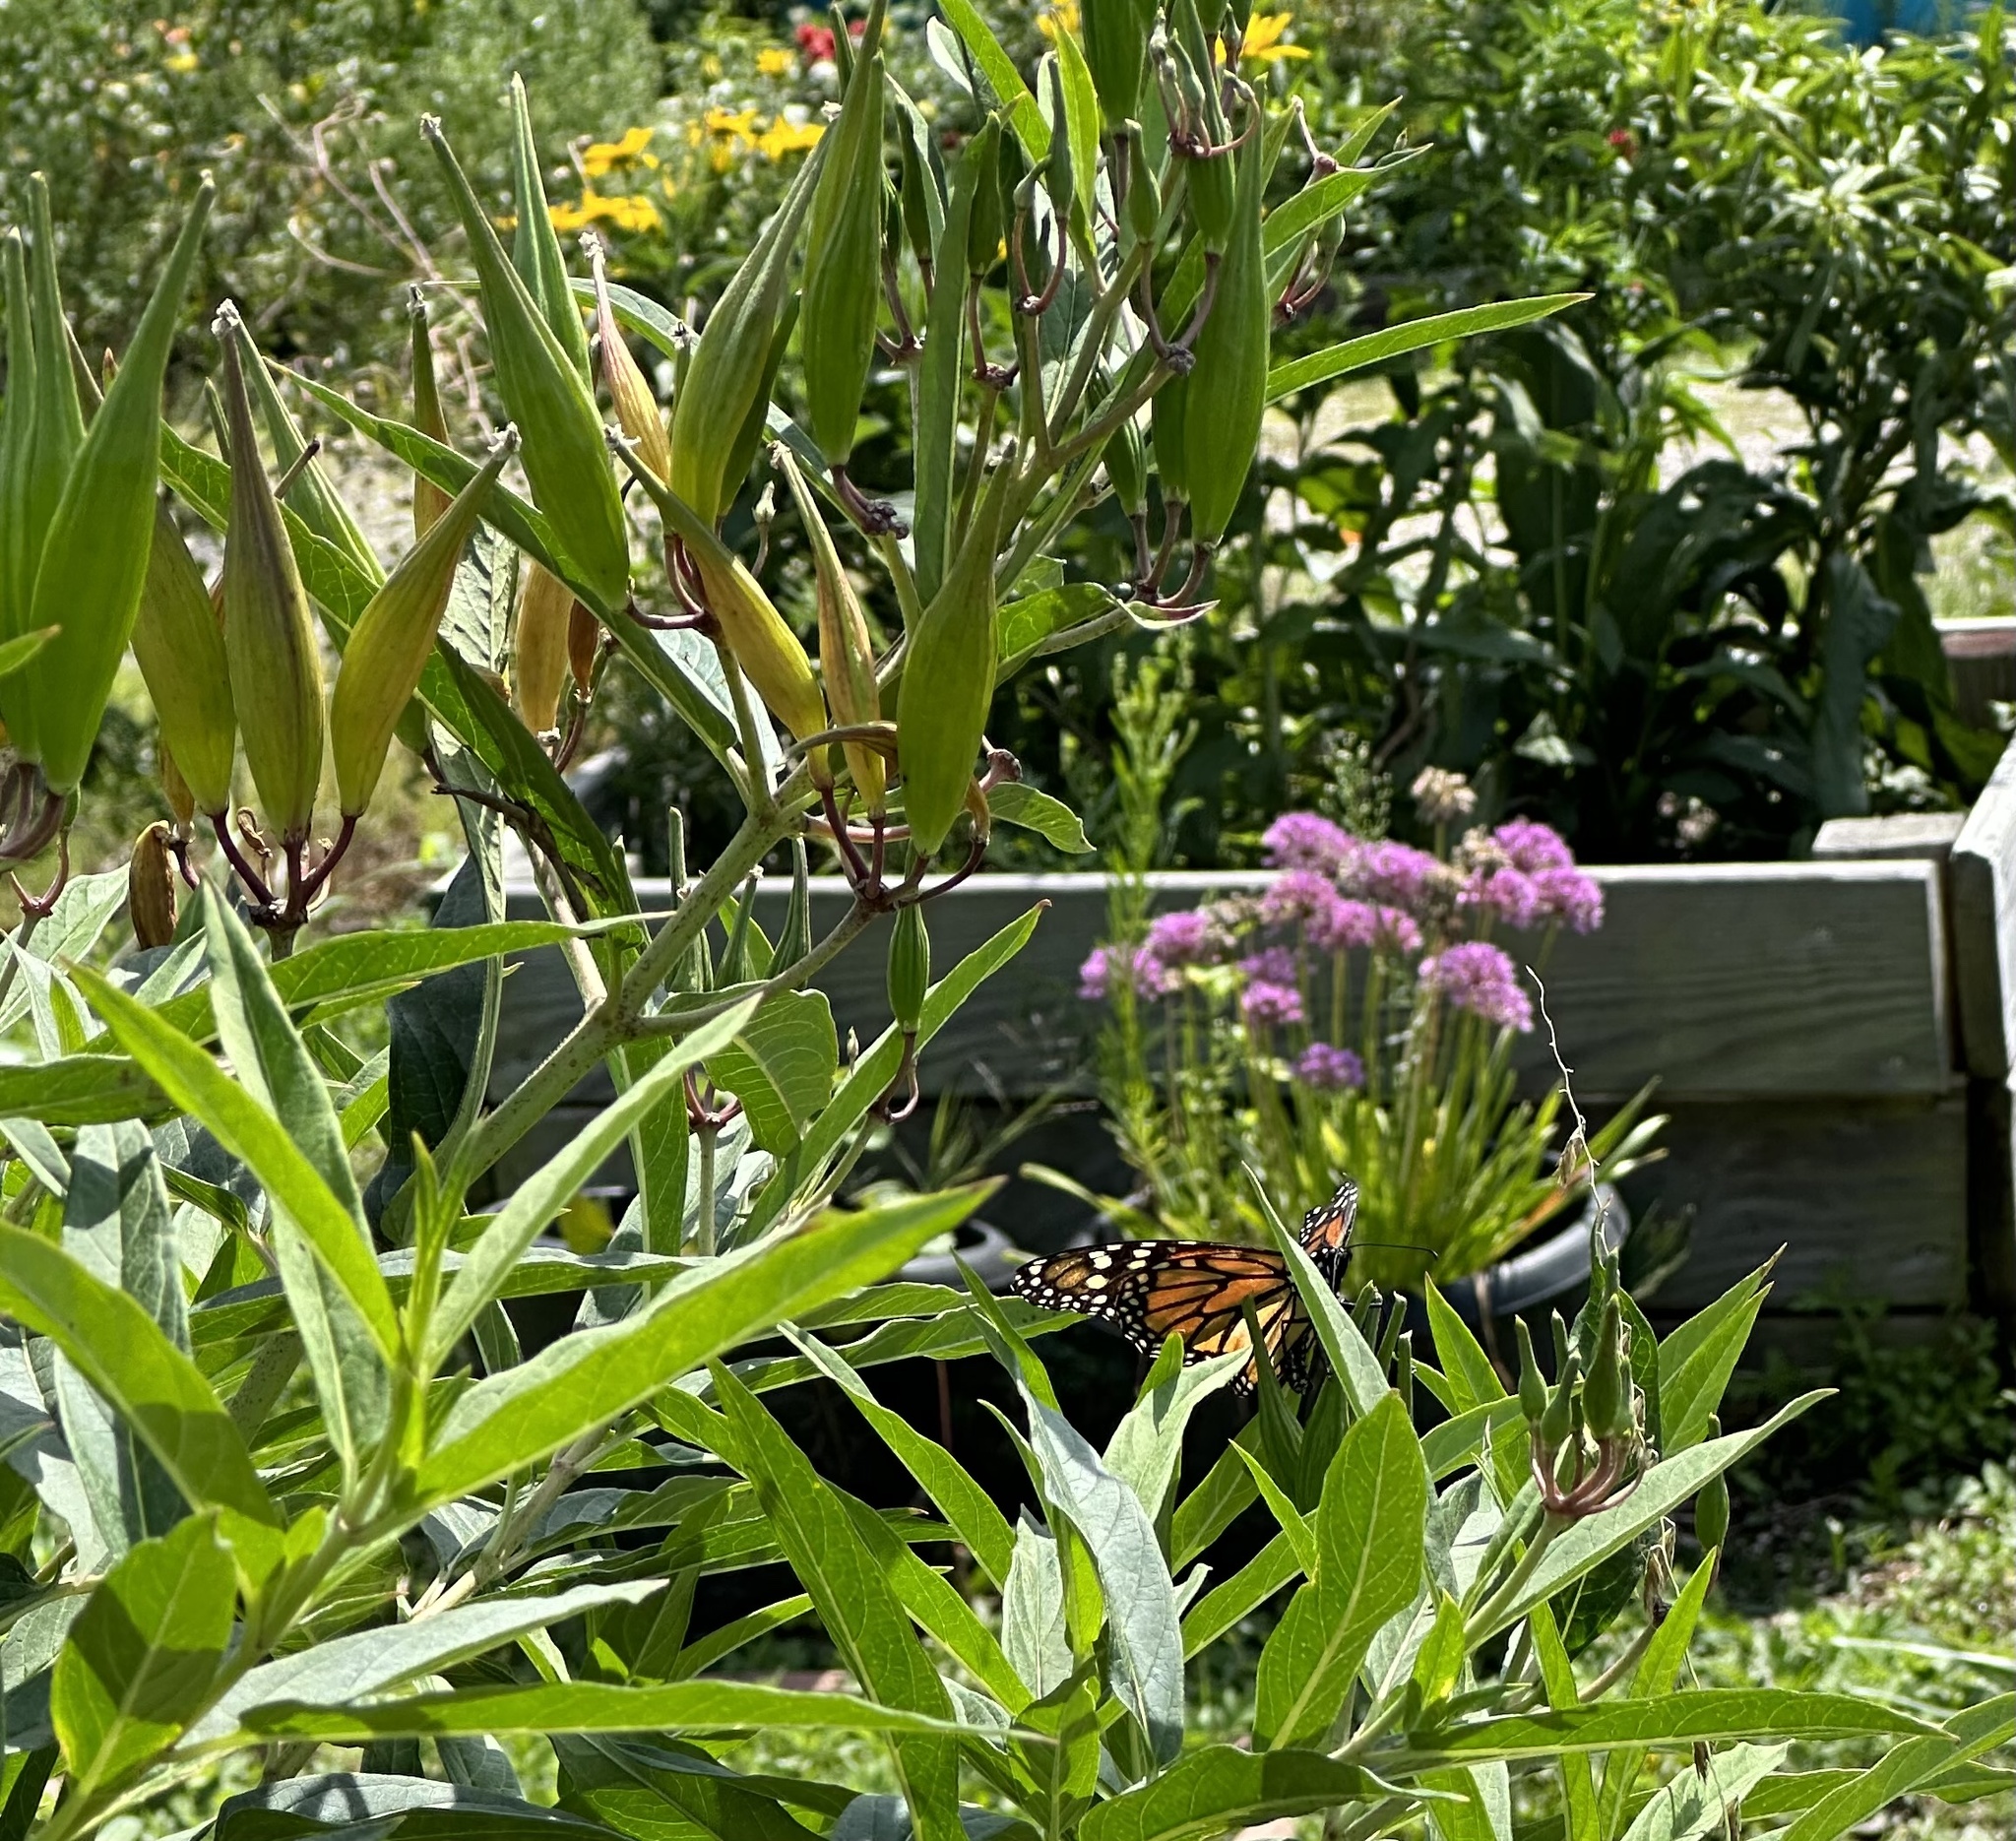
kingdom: Animalia
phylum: Arthropoda
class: Insecta
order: Lepidoptera
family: Nymphalidae
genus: Danaus
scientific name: Danaus plexippus
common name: Monarch
